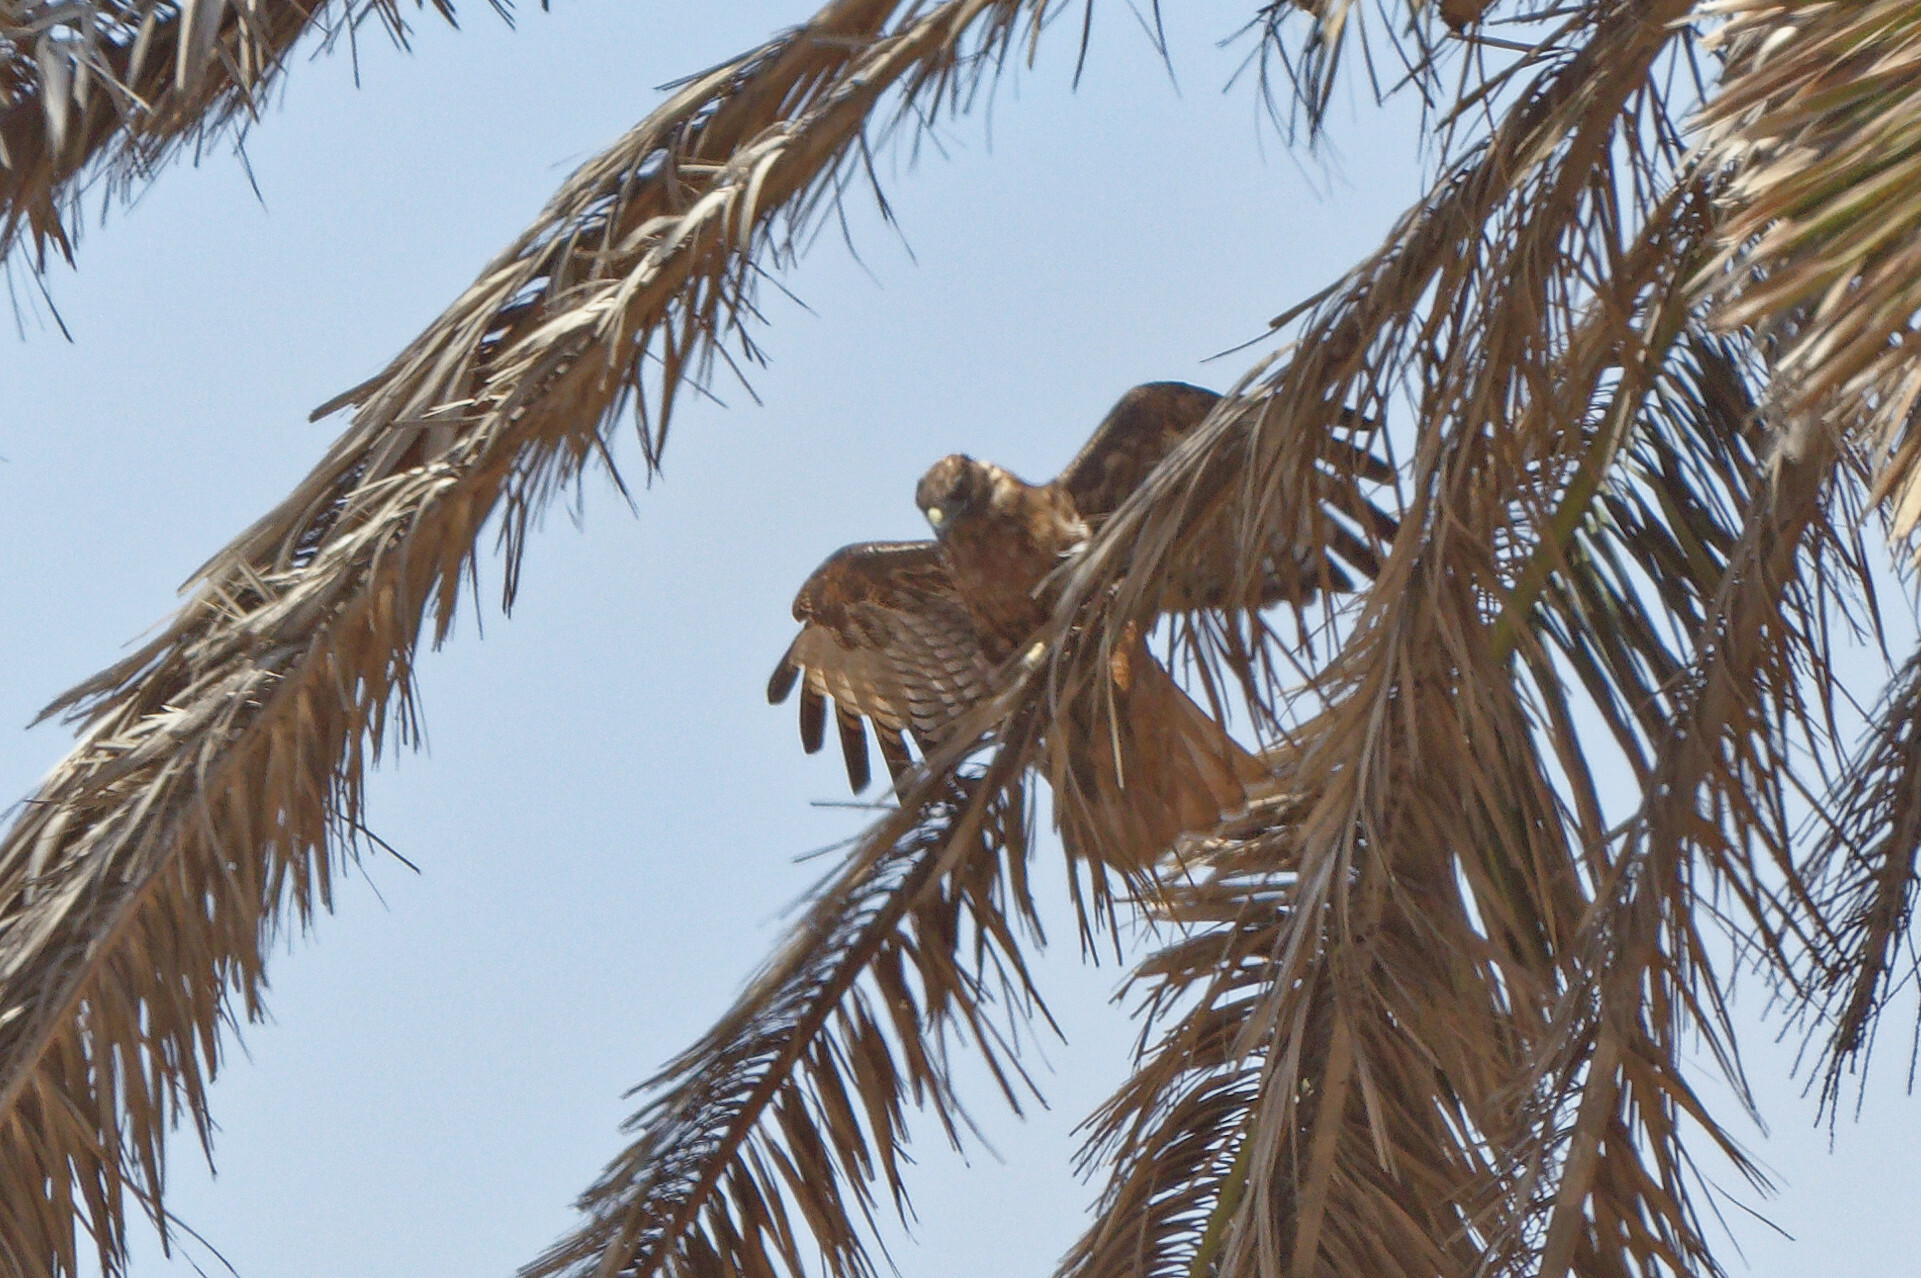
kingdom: Animalia
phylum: Chordata
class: Aves
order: Accipitriformes
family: Accipitridae
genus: Buteo
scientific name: Buteo jamaicensis
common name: Red-tailed hawk
